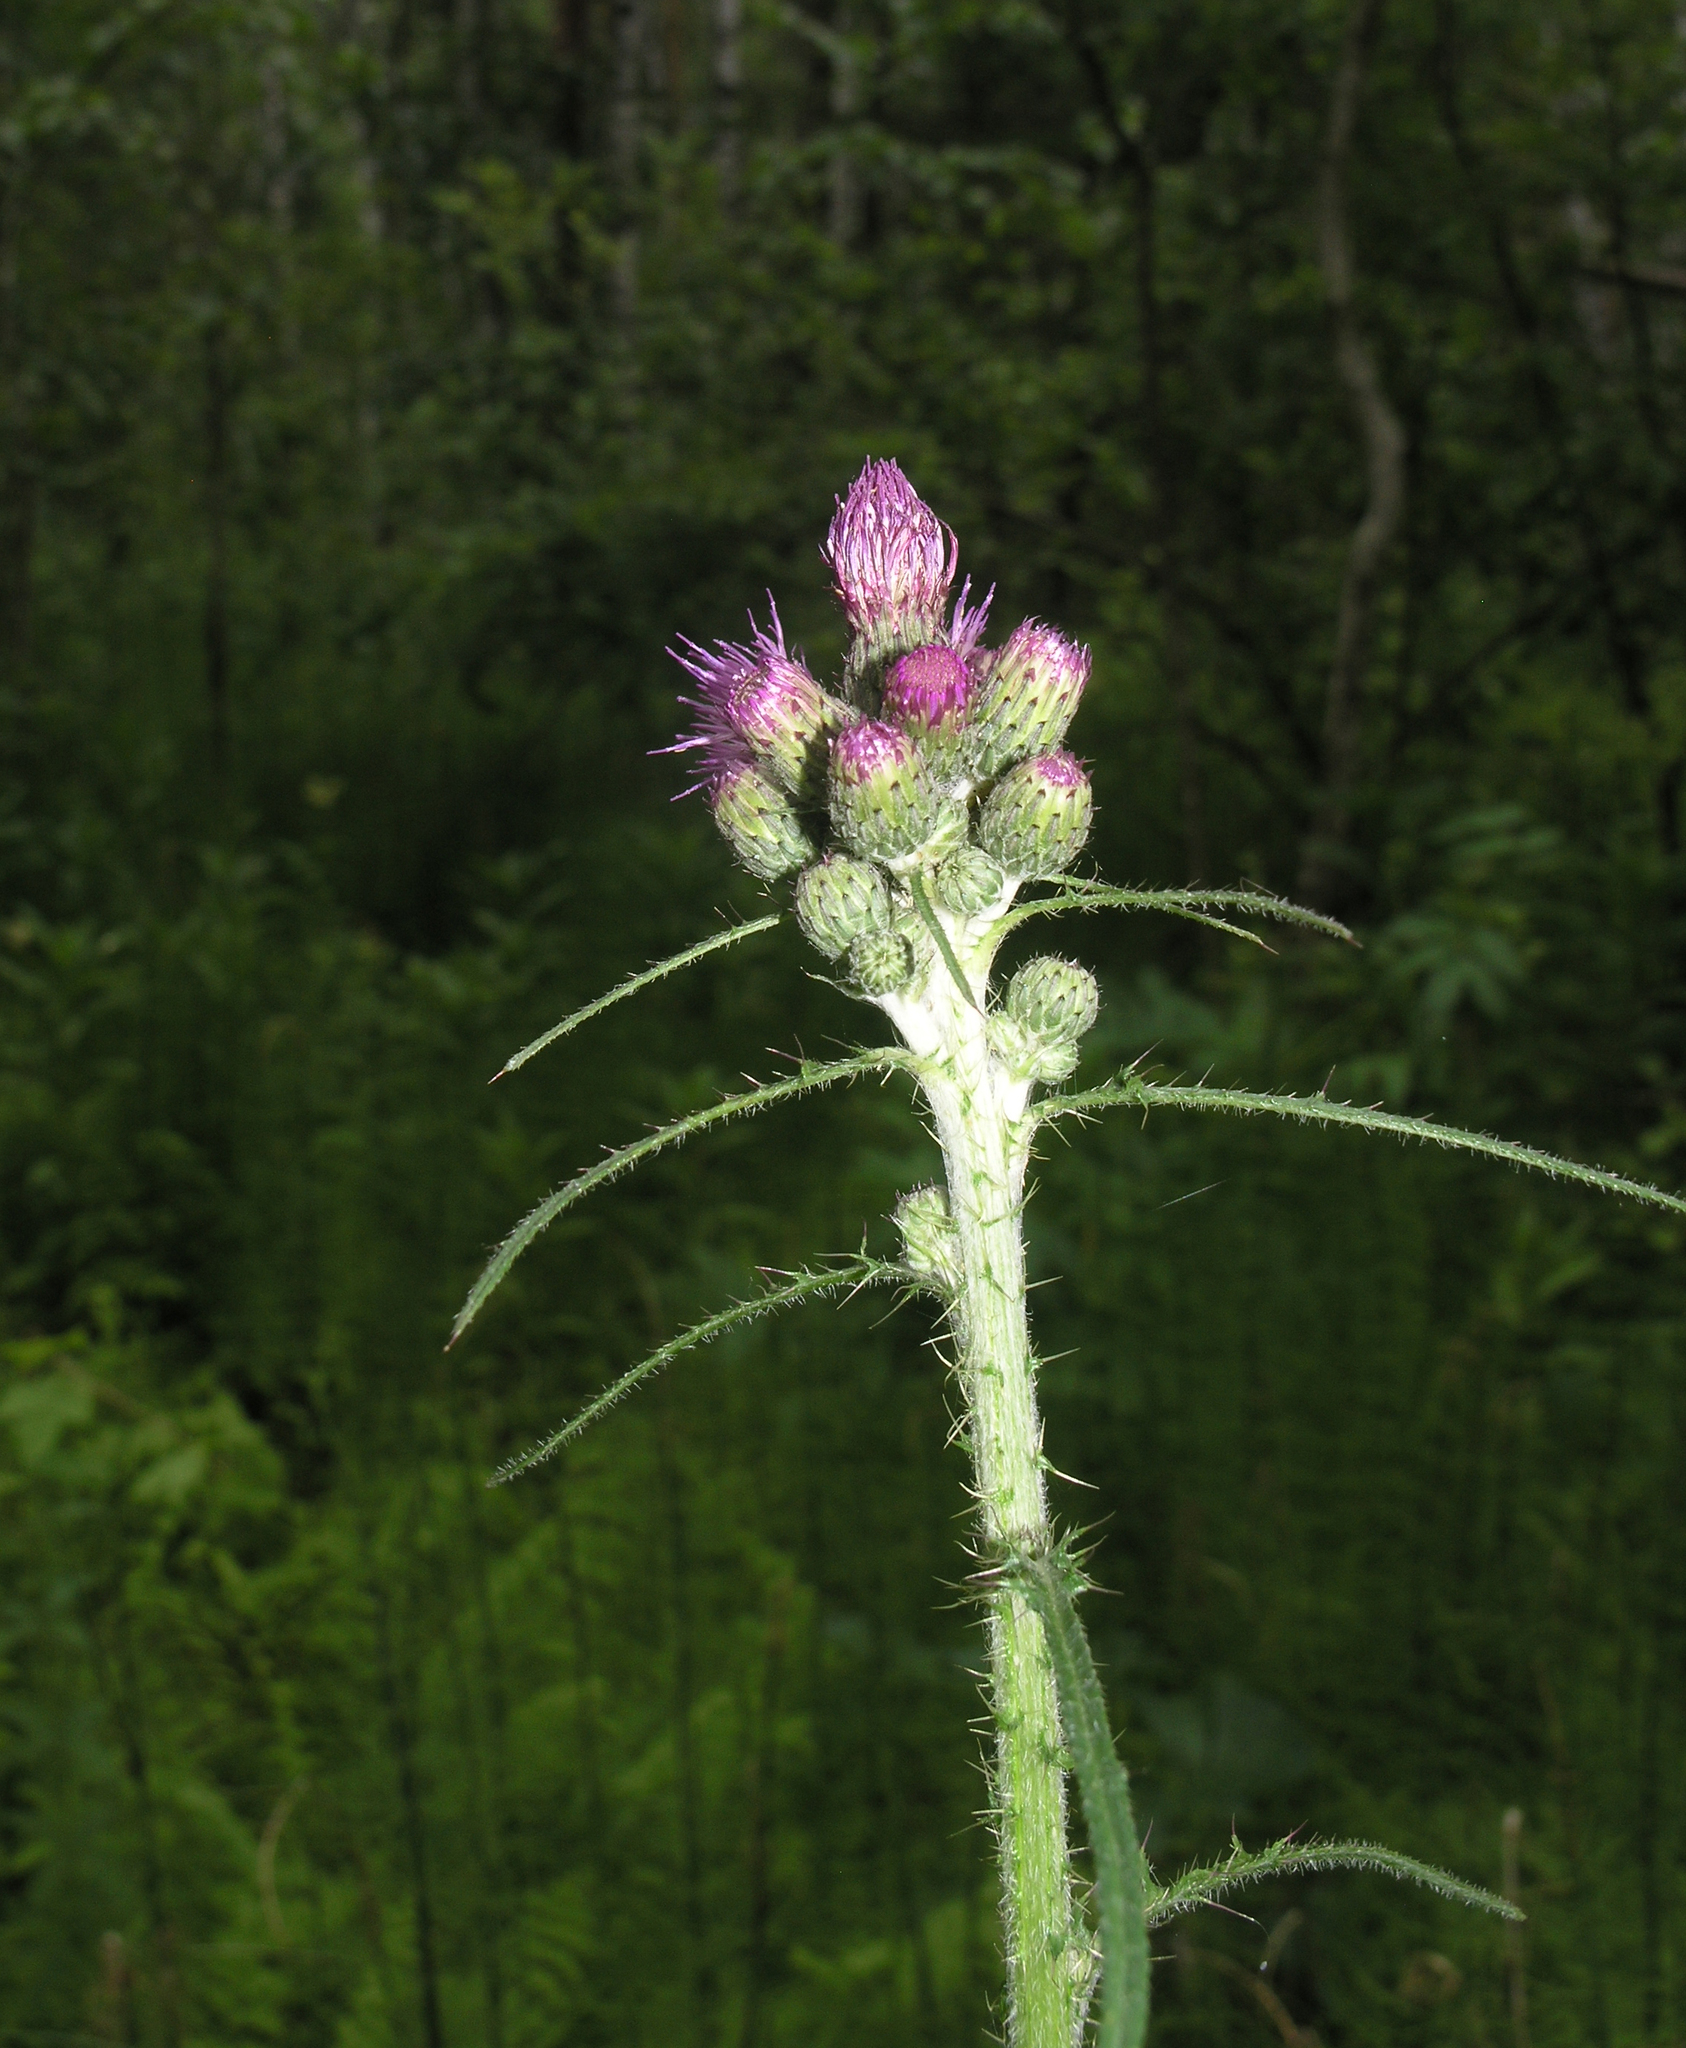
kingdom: Plantae
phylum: Tracheophyta
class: Magnoliopsida
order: Asterales
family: Asteraceae
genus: Cirsium
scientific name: Cirsium palustre
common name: Marsh thistle
